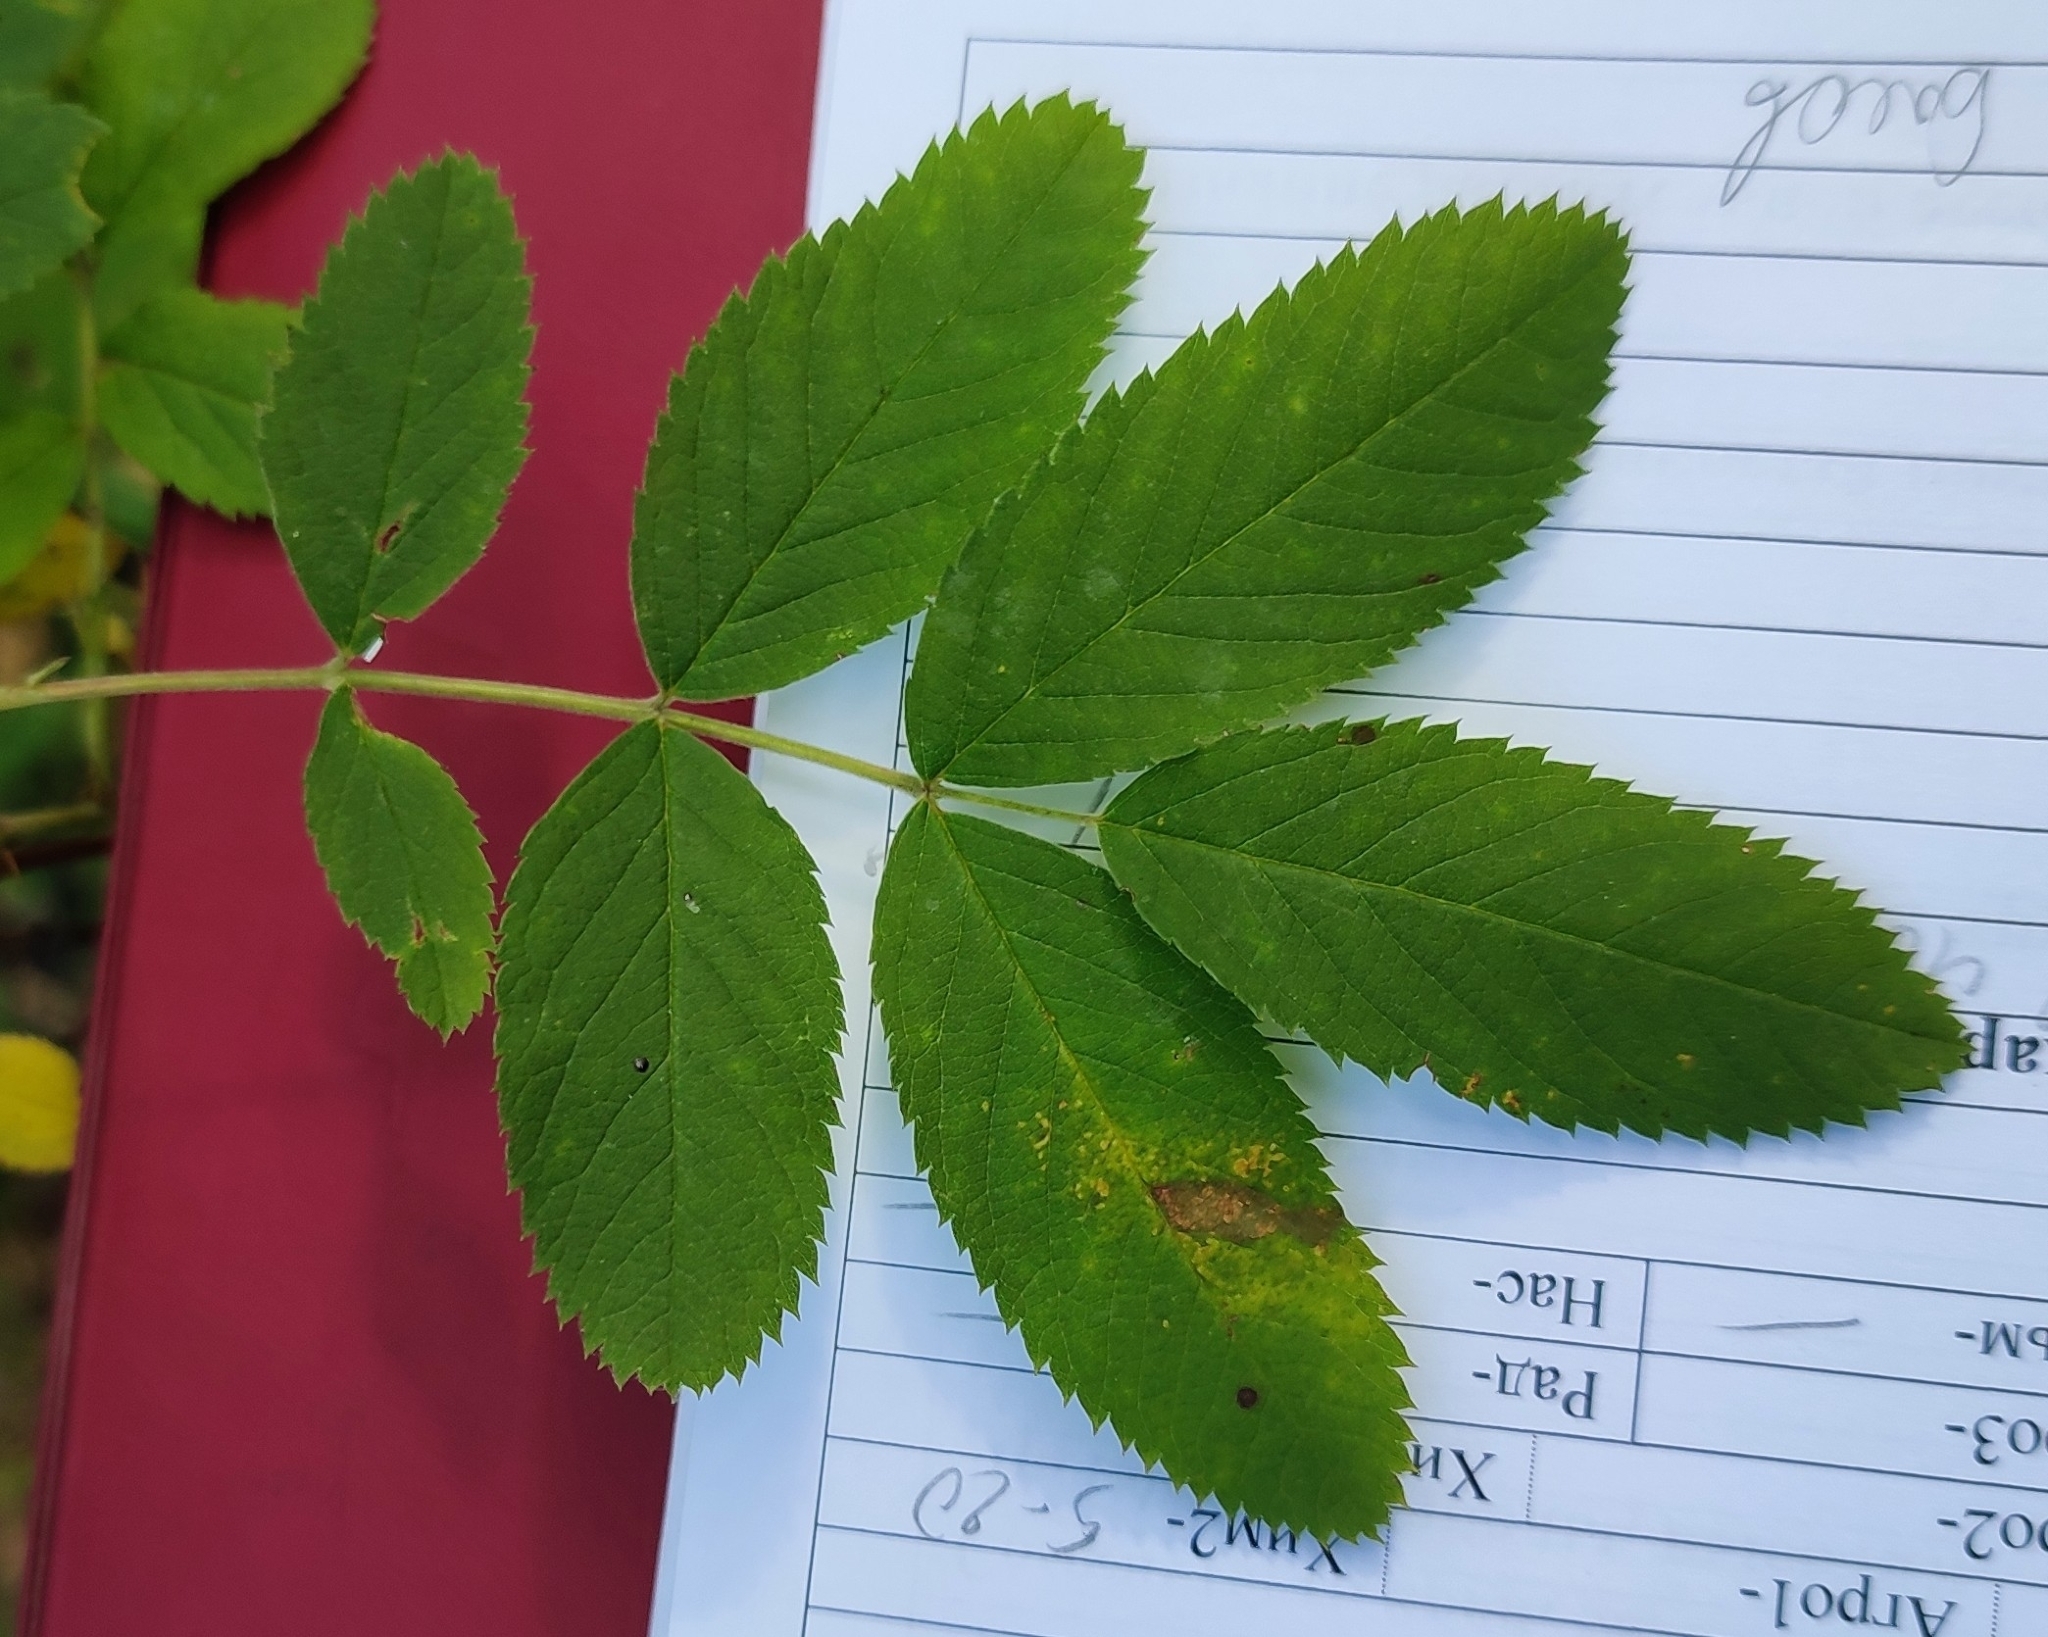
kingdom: Plantae
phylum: Tracheophyta
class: Magnoliopsida
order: Rosales
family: Rosaceae
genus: Rosa
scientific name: Rosa majalis
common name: Cinnamon rose
